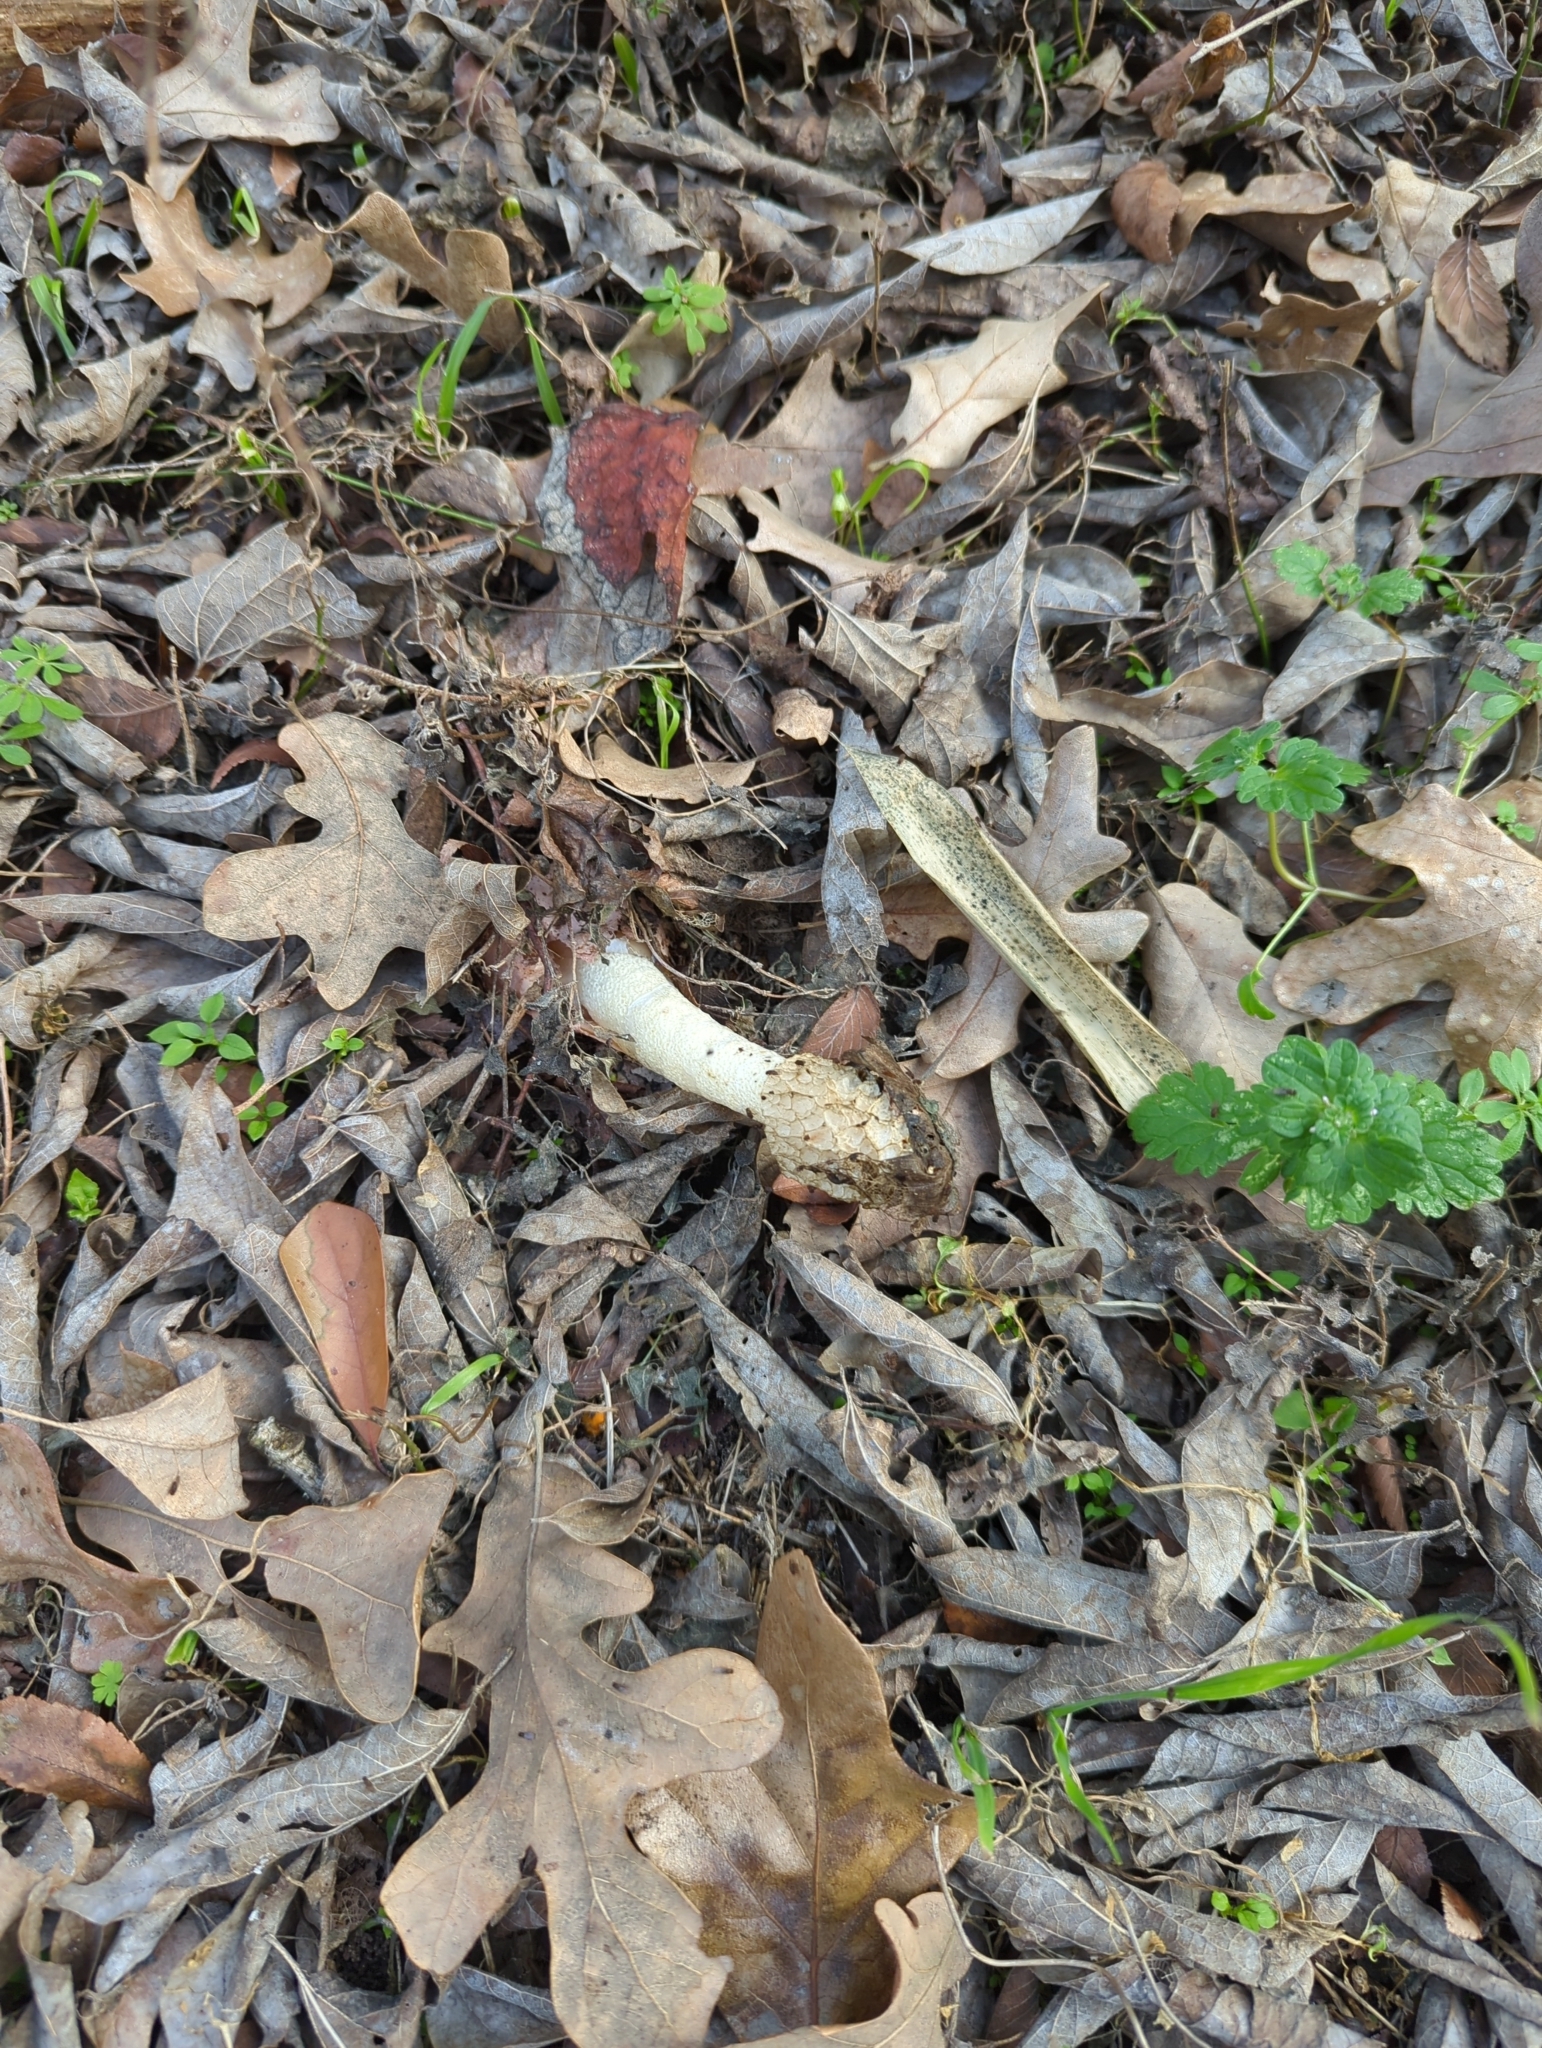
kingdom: Fungi
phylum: Basidiomycota
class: Agaricomycetes
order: Phallales
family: Phallaceae
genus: Phallus
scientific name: Phallus hadriani
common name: Sand stinkhorn
